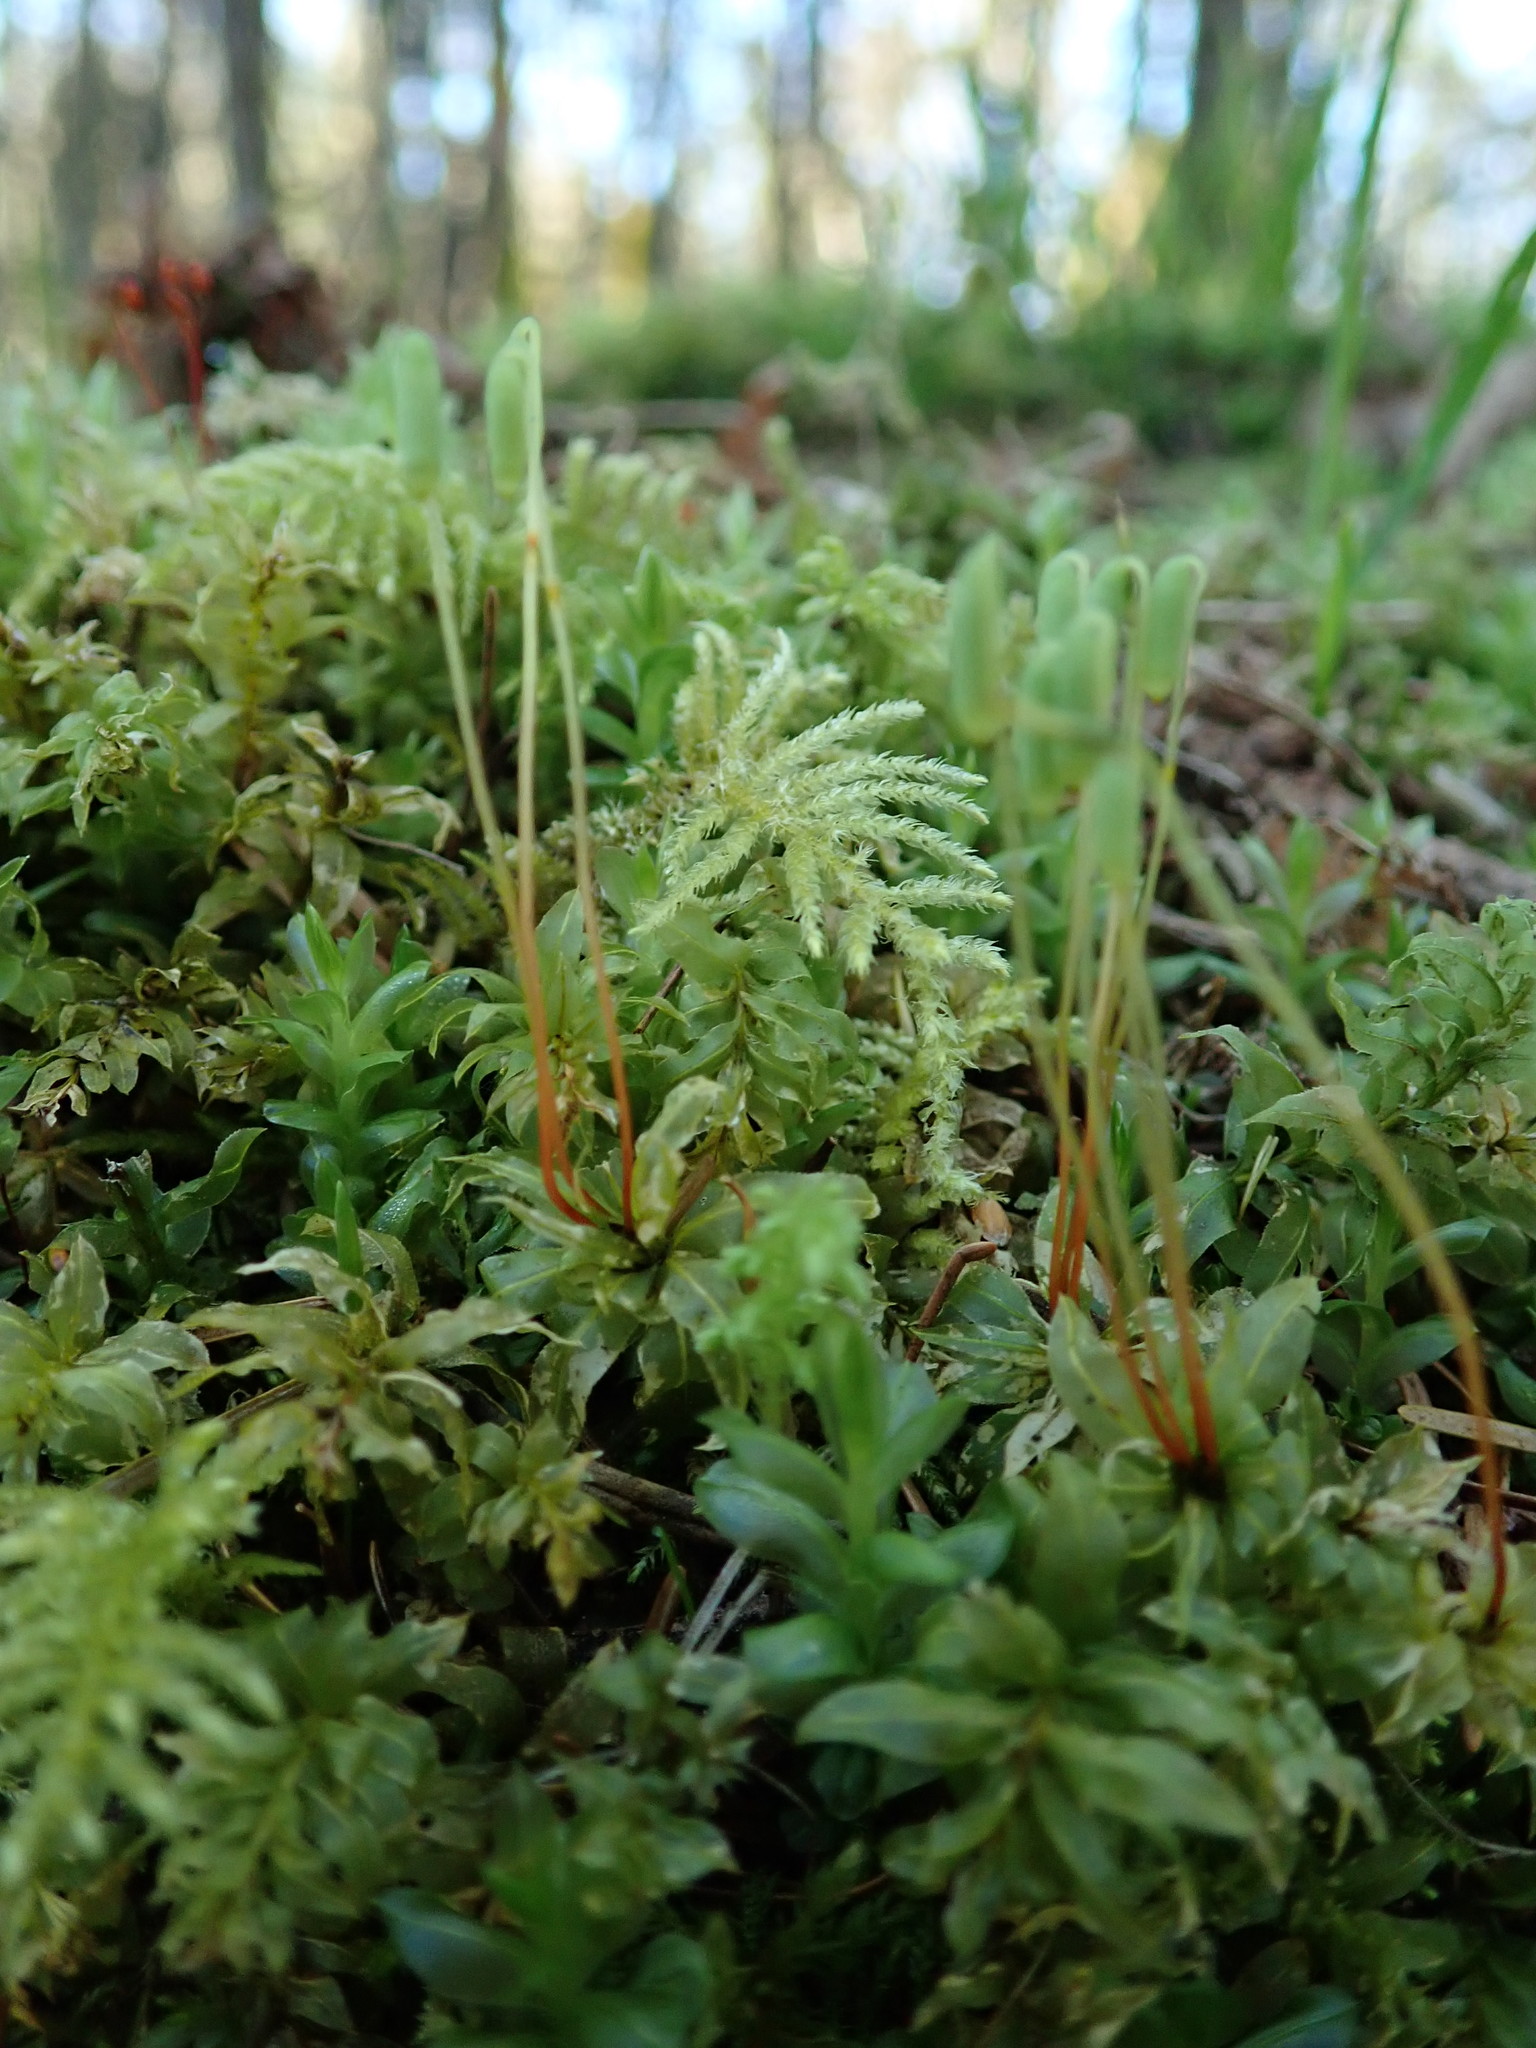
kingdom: Plantae
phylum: Bryophyta
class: Bryopsida
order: Bryales
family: Mniaceae
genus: Plagiomnium
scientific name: Plagiomnium insigne
